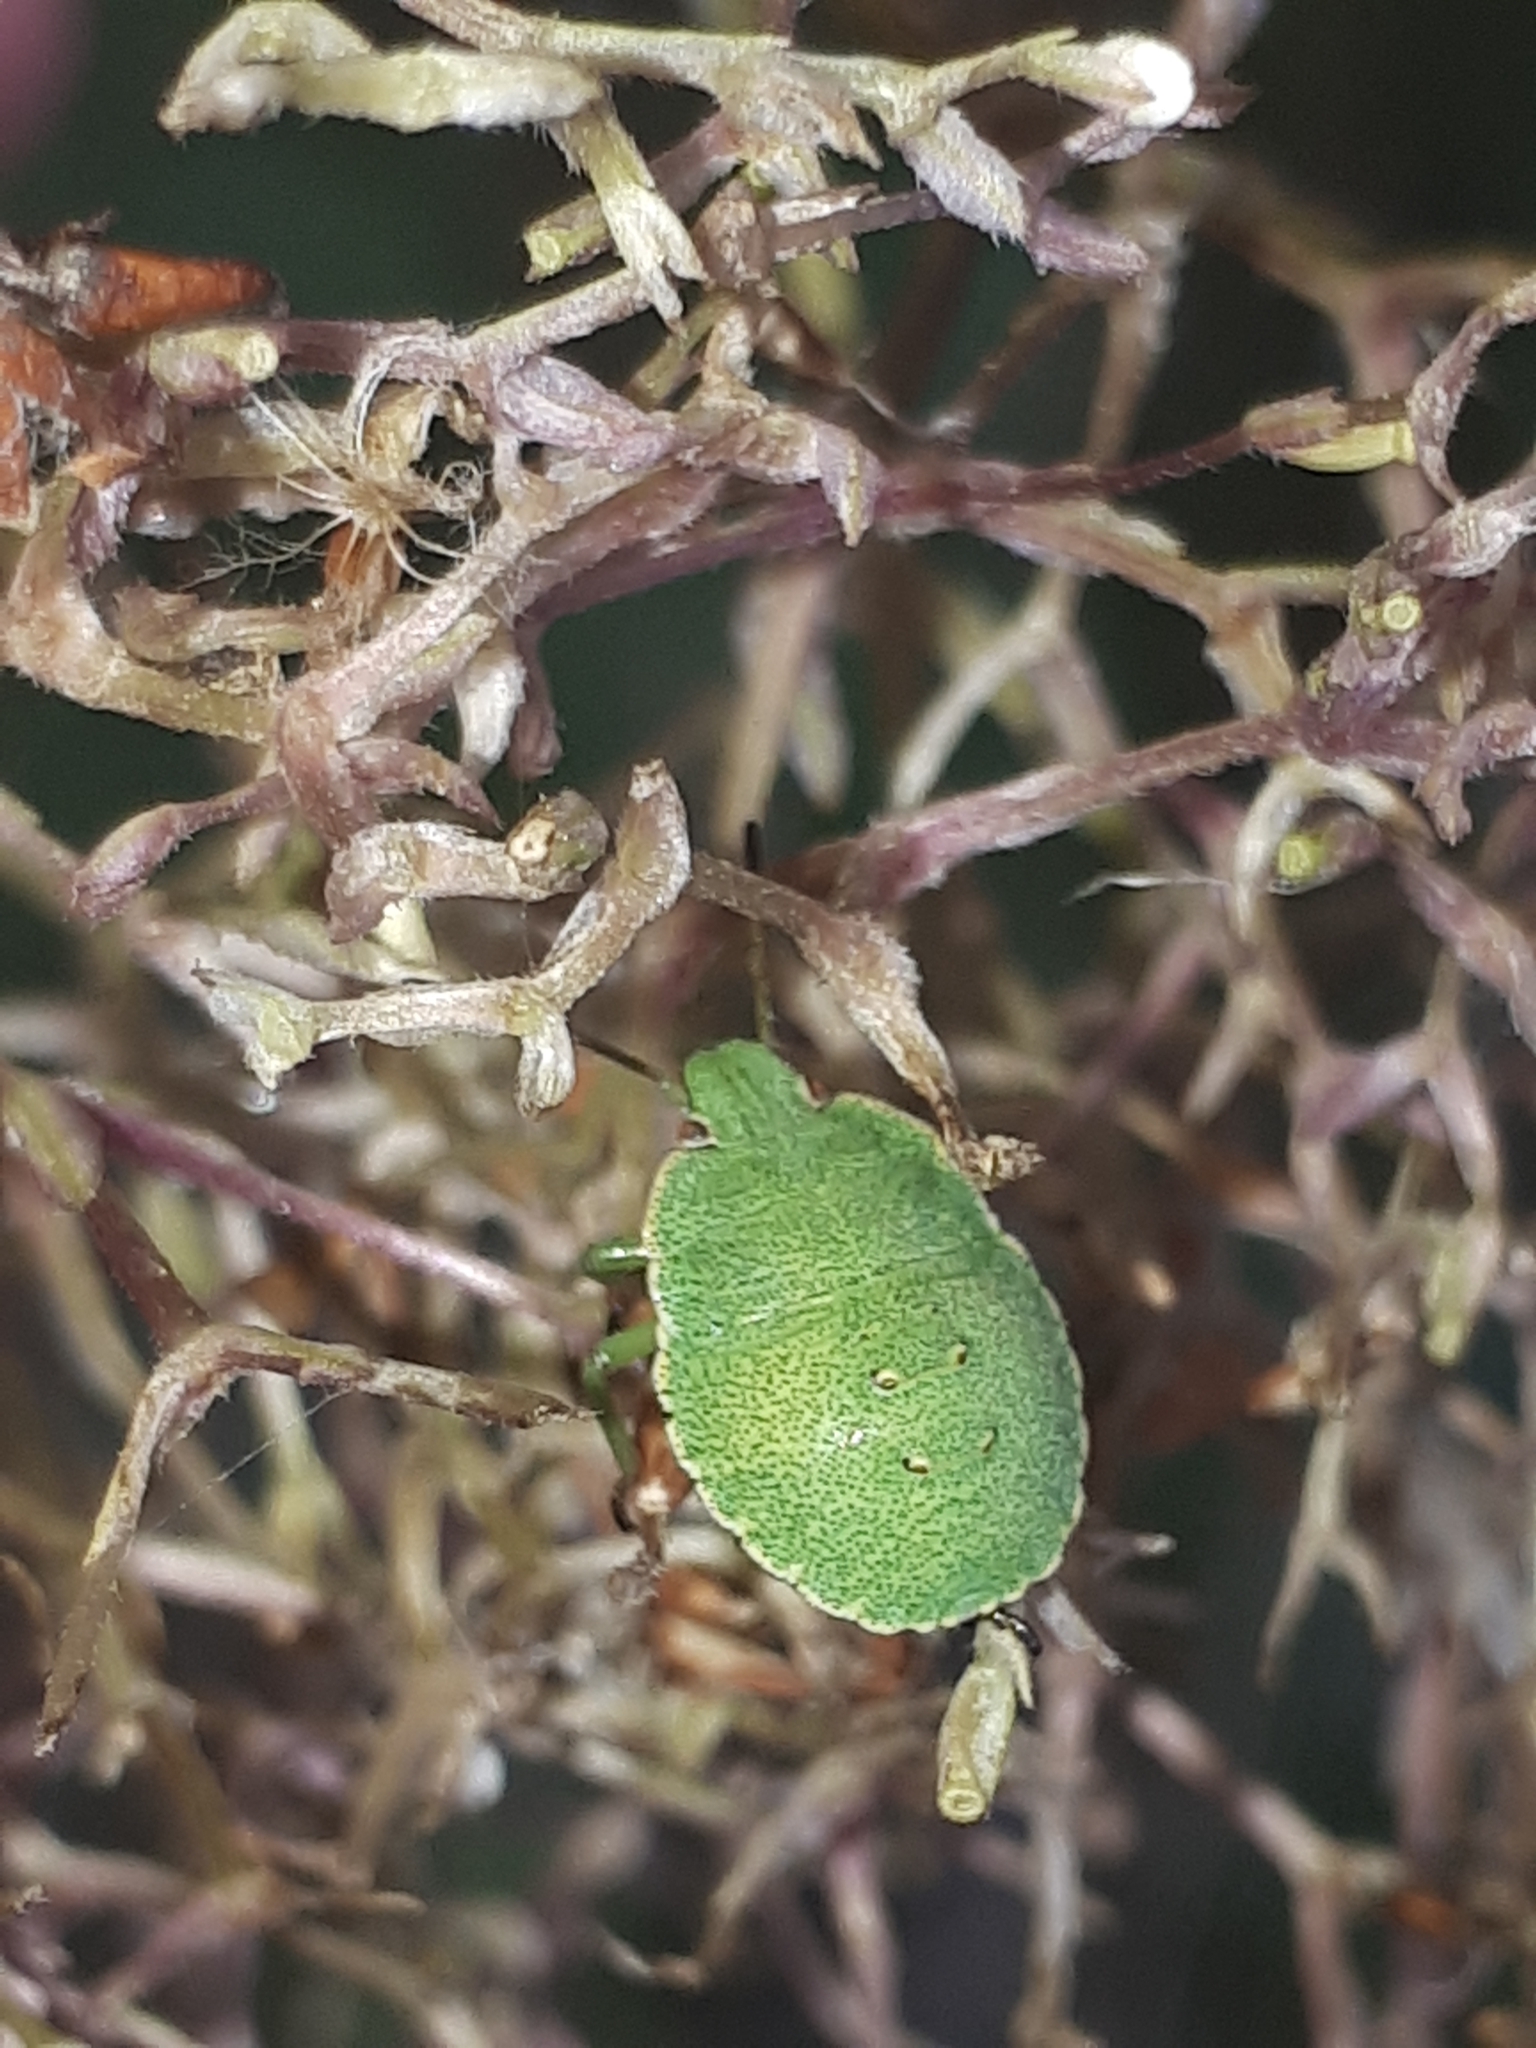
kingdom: Animalia
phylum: Arthropoda
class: Insecta
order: Hemiptera
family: Pentatomidae
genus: Palomena
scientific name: Palomena prasina
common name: Green shieldbug
